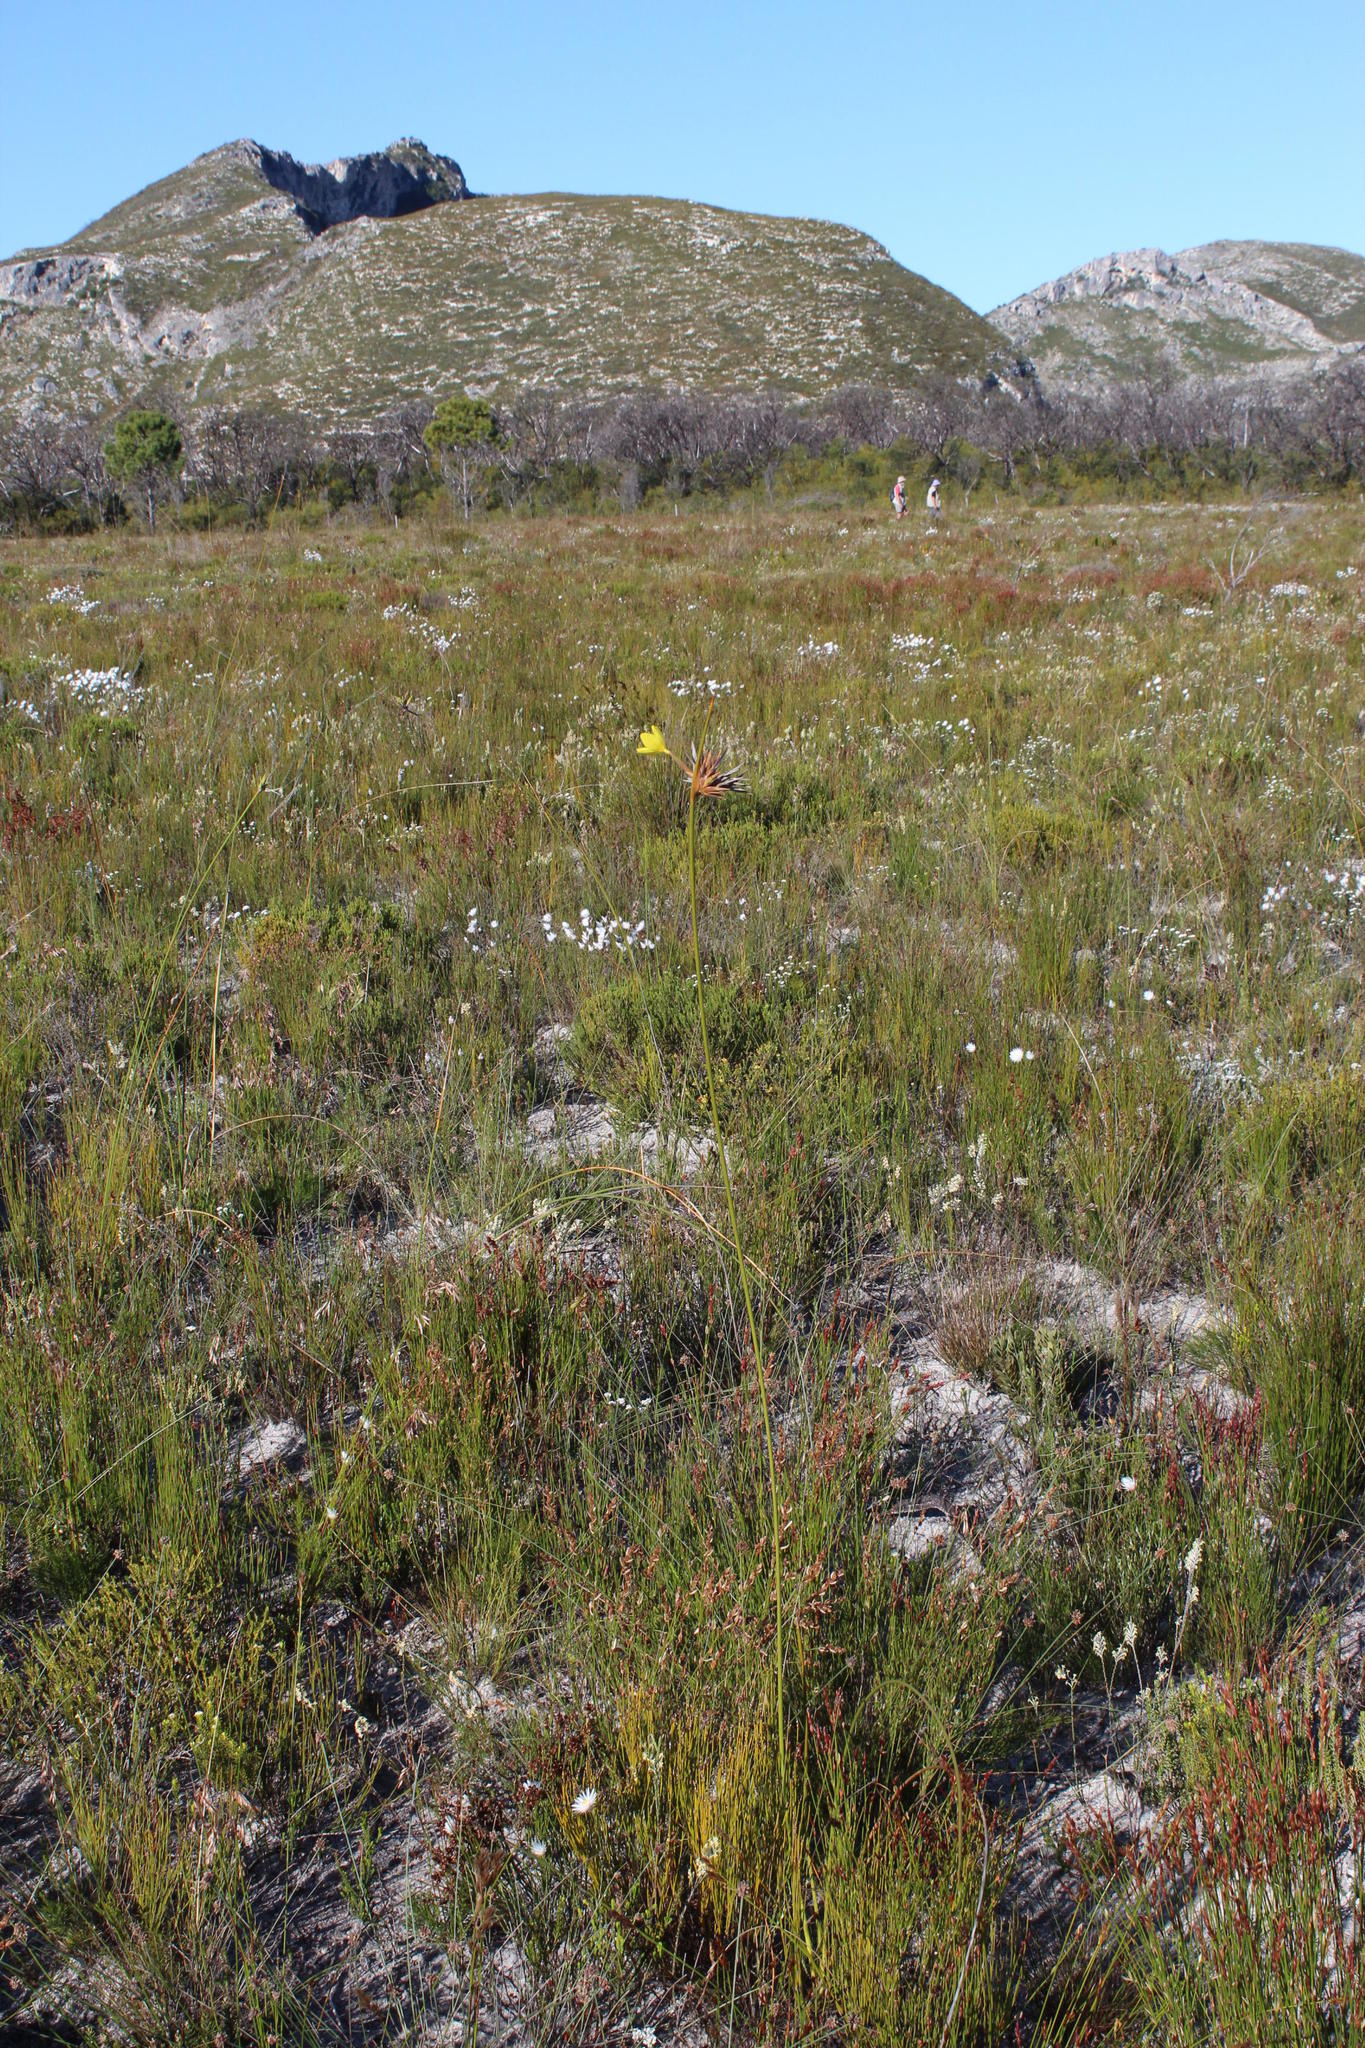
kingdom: Plantae
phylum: Tracheophyta
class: Liliopsida
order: Asparagales
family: Iridaceae
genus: Bobartia
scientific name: Bobartia indica
